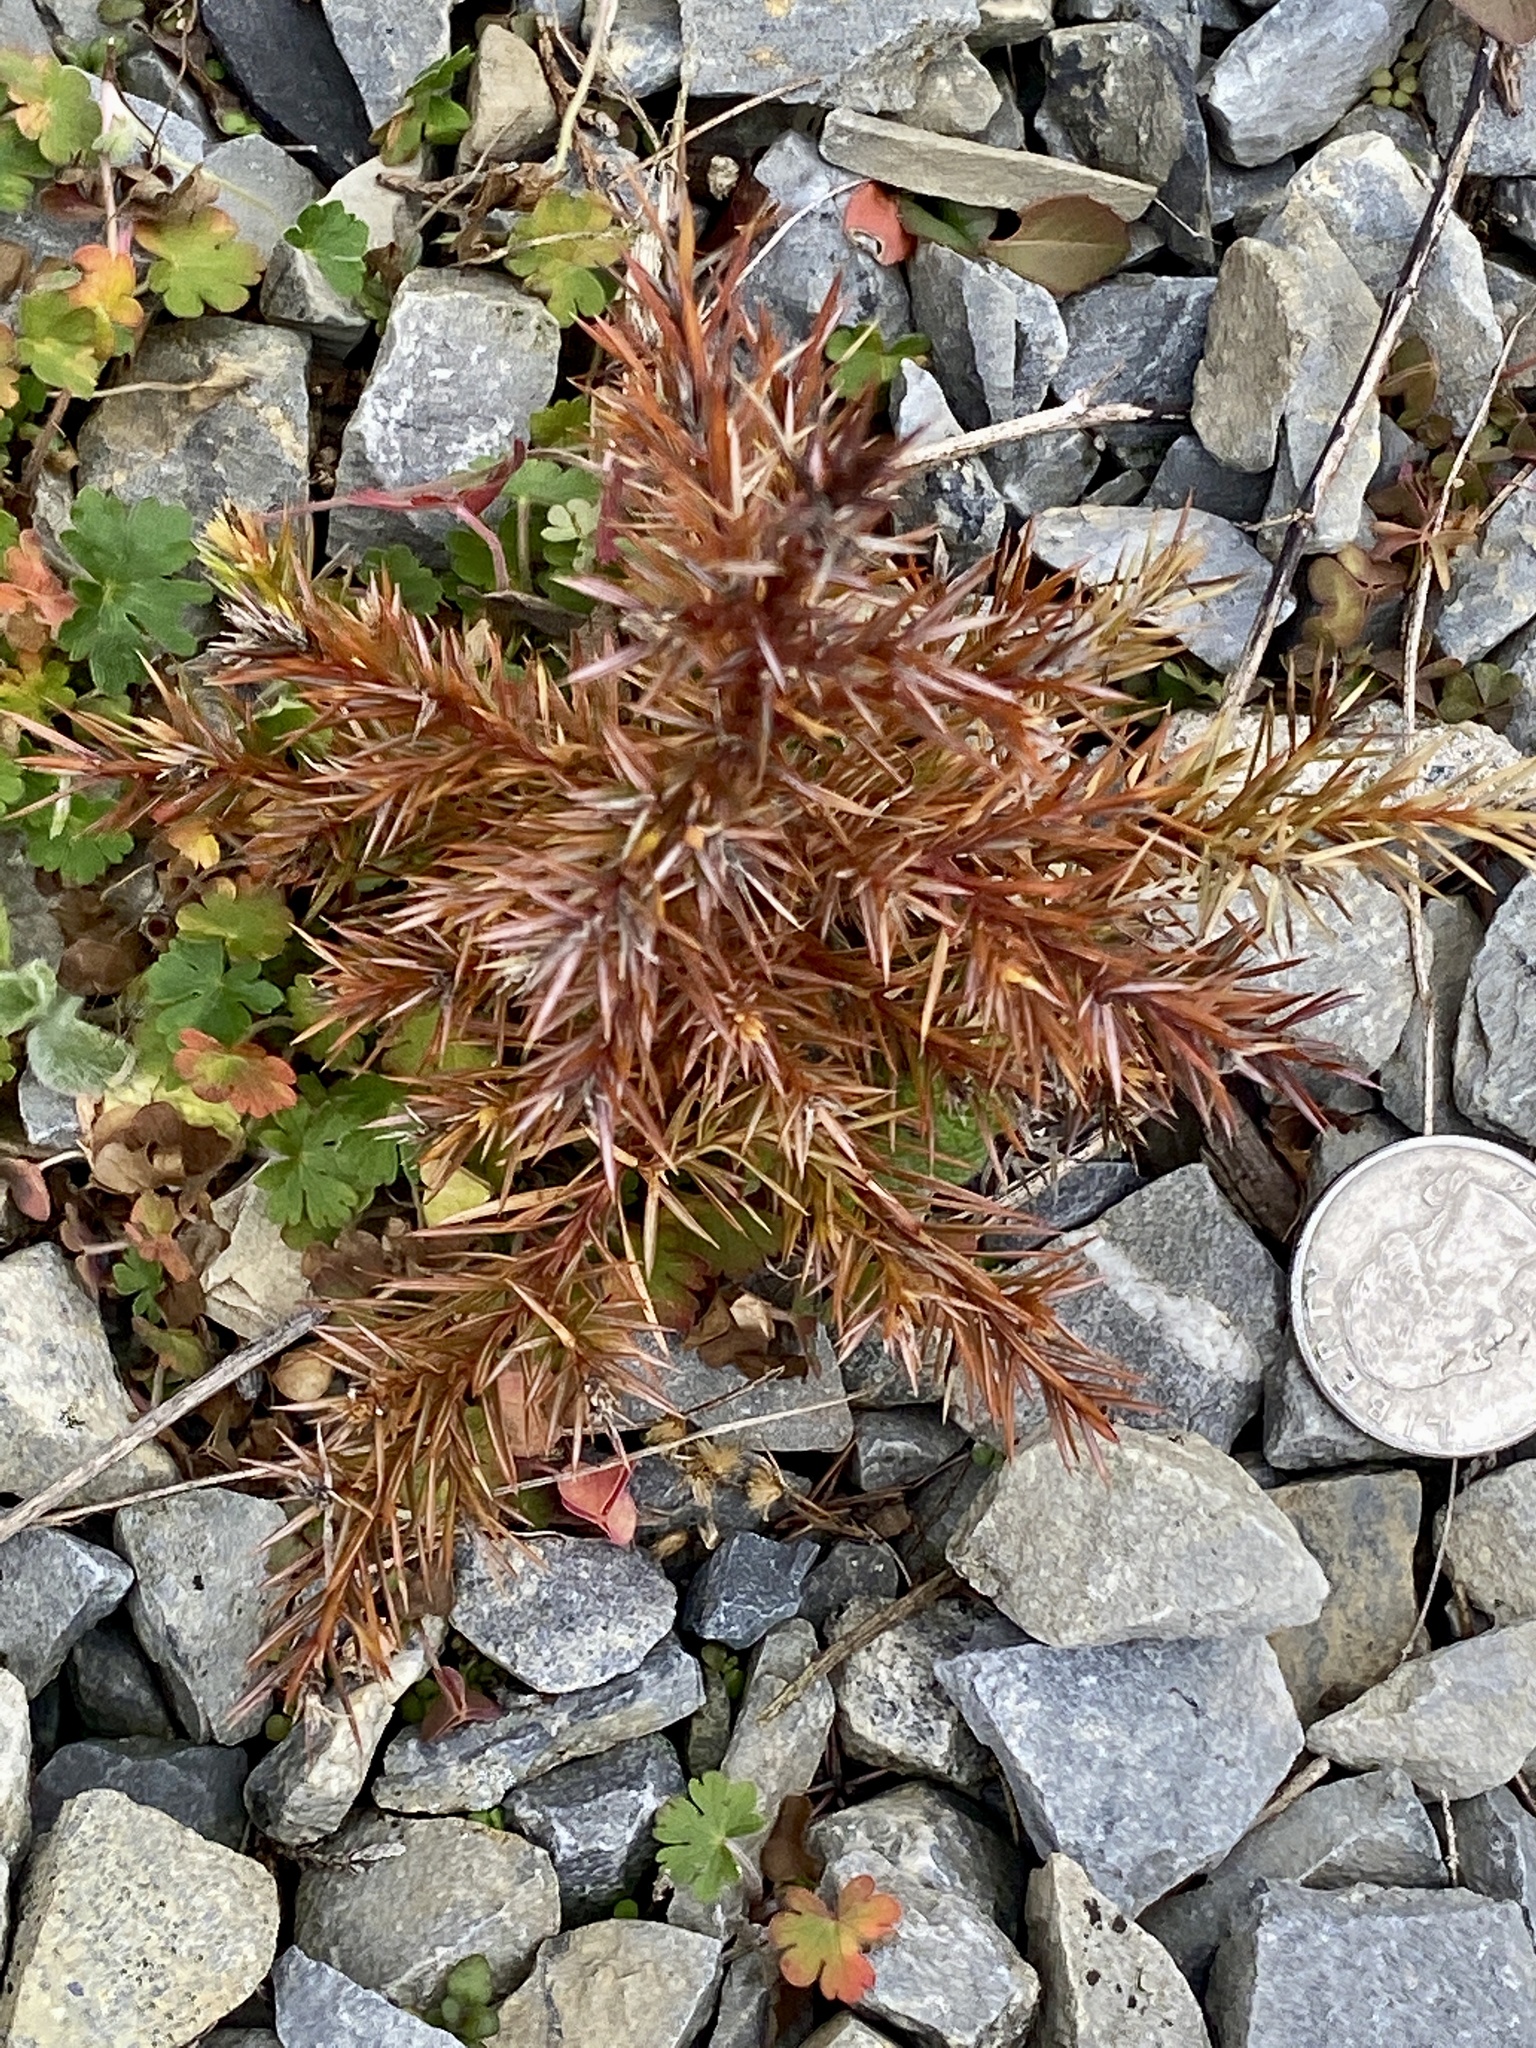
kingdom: Plantae
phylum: Tracheophyta
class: Pinopsida
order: Pinales
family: Cupressaceae
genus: Juniperus
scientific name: Juniperus virginiana
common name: Red juniper
